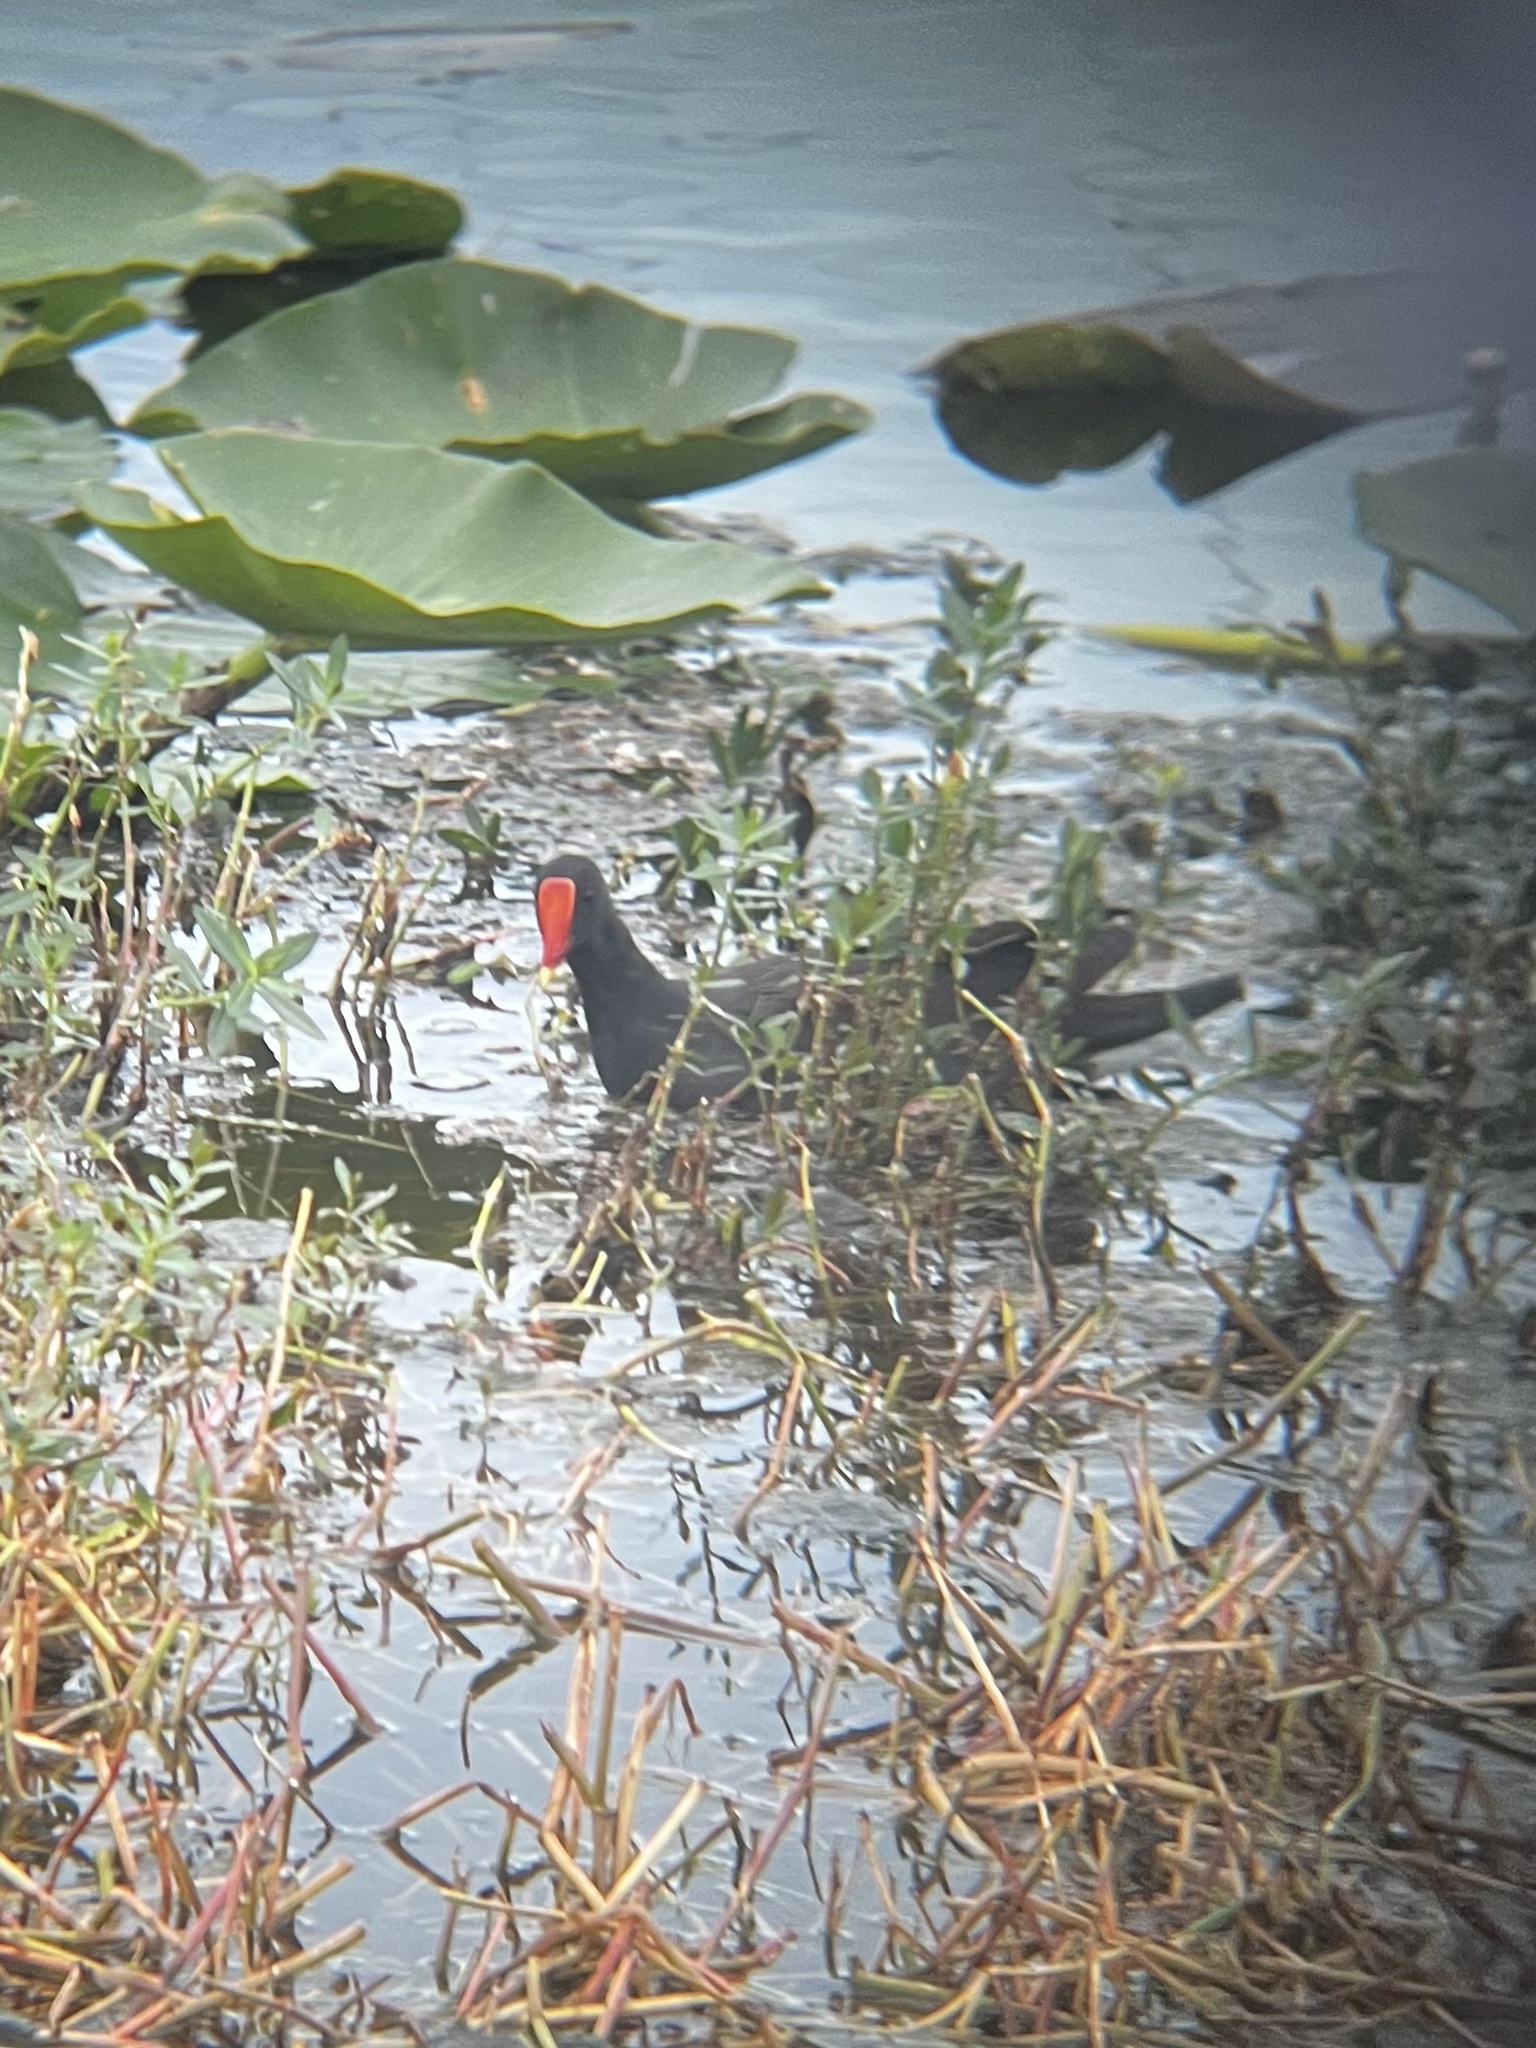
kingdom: Animalia
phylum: Chordata
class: Aves
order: Gruiformes
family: Rallidae
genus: Gallinula
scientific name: Gallinula chloropus
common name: Common moorhen
